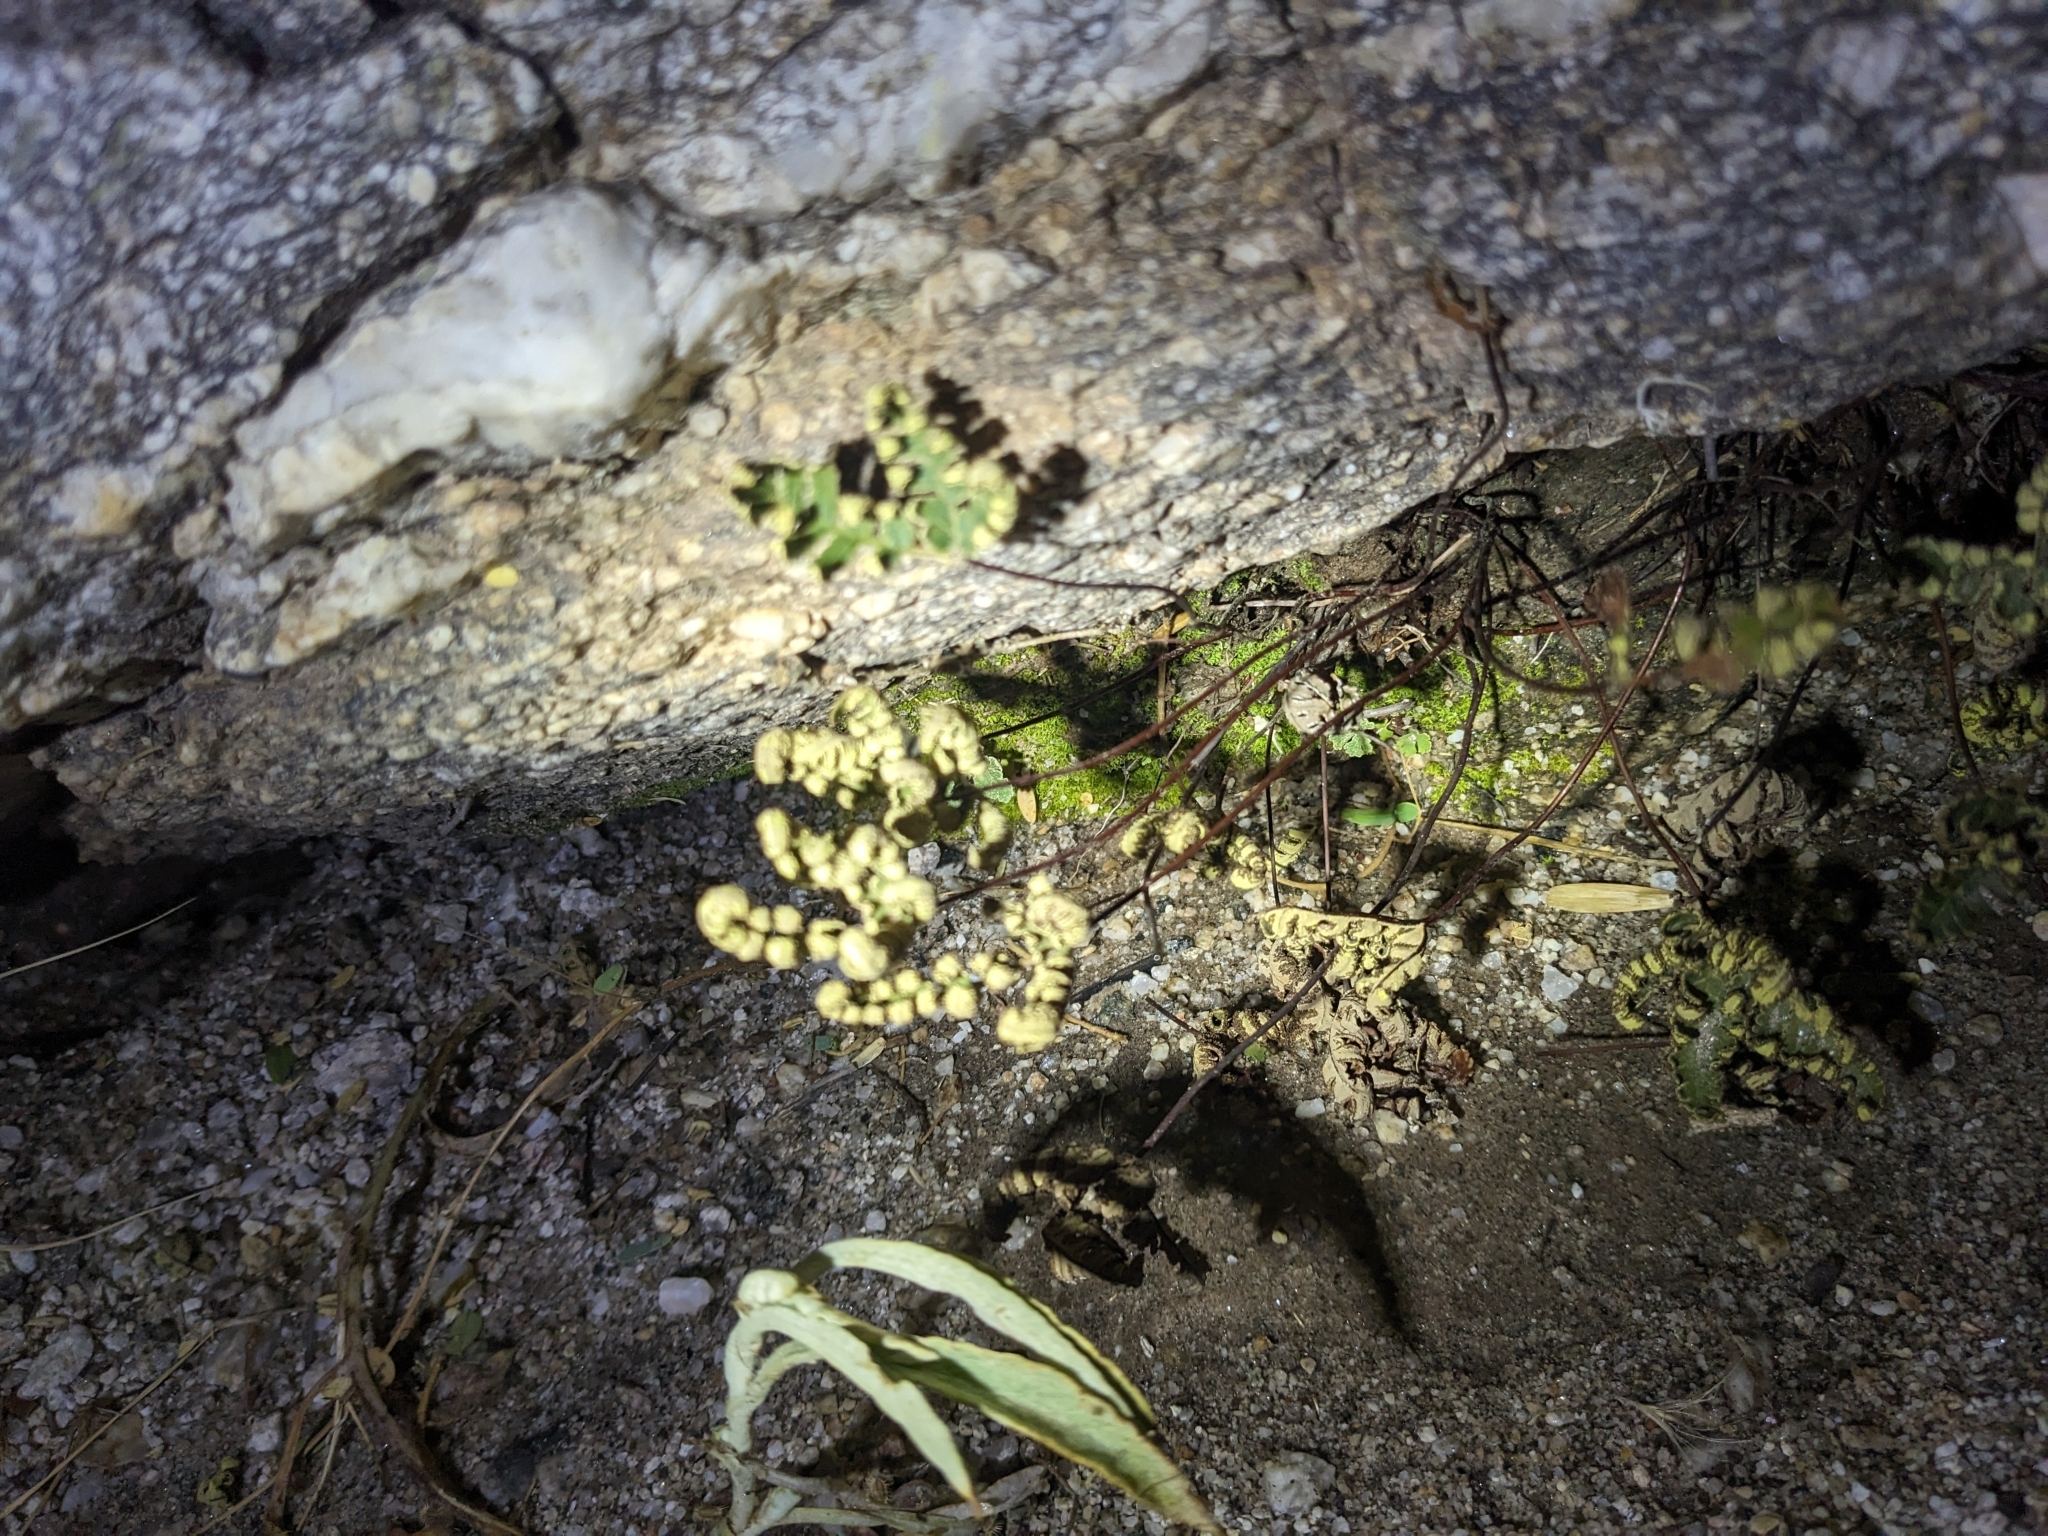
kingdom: Plantae
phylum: Tracheophyta
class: Polypodiopsida
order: Polypodiales
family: Pteridaceae
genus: Notholaena
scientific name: Notholaena standleyi
